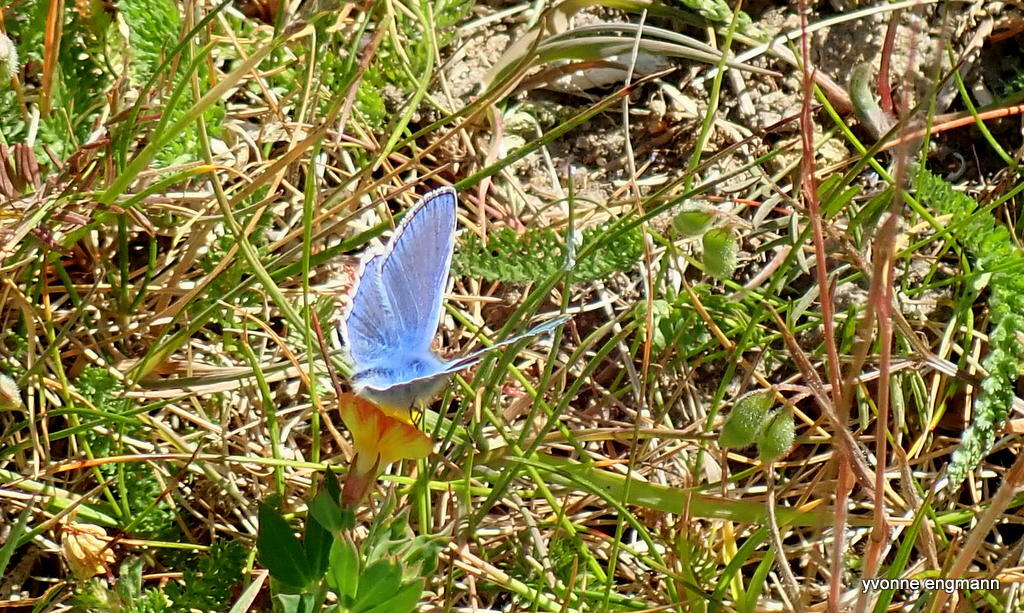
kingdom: Animalia
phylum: Arthropoda
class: Insecta
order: Lepidoptera
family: Lycaenidae
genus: Polyommatus
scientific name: Polyommatus icarus
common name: Common blue
